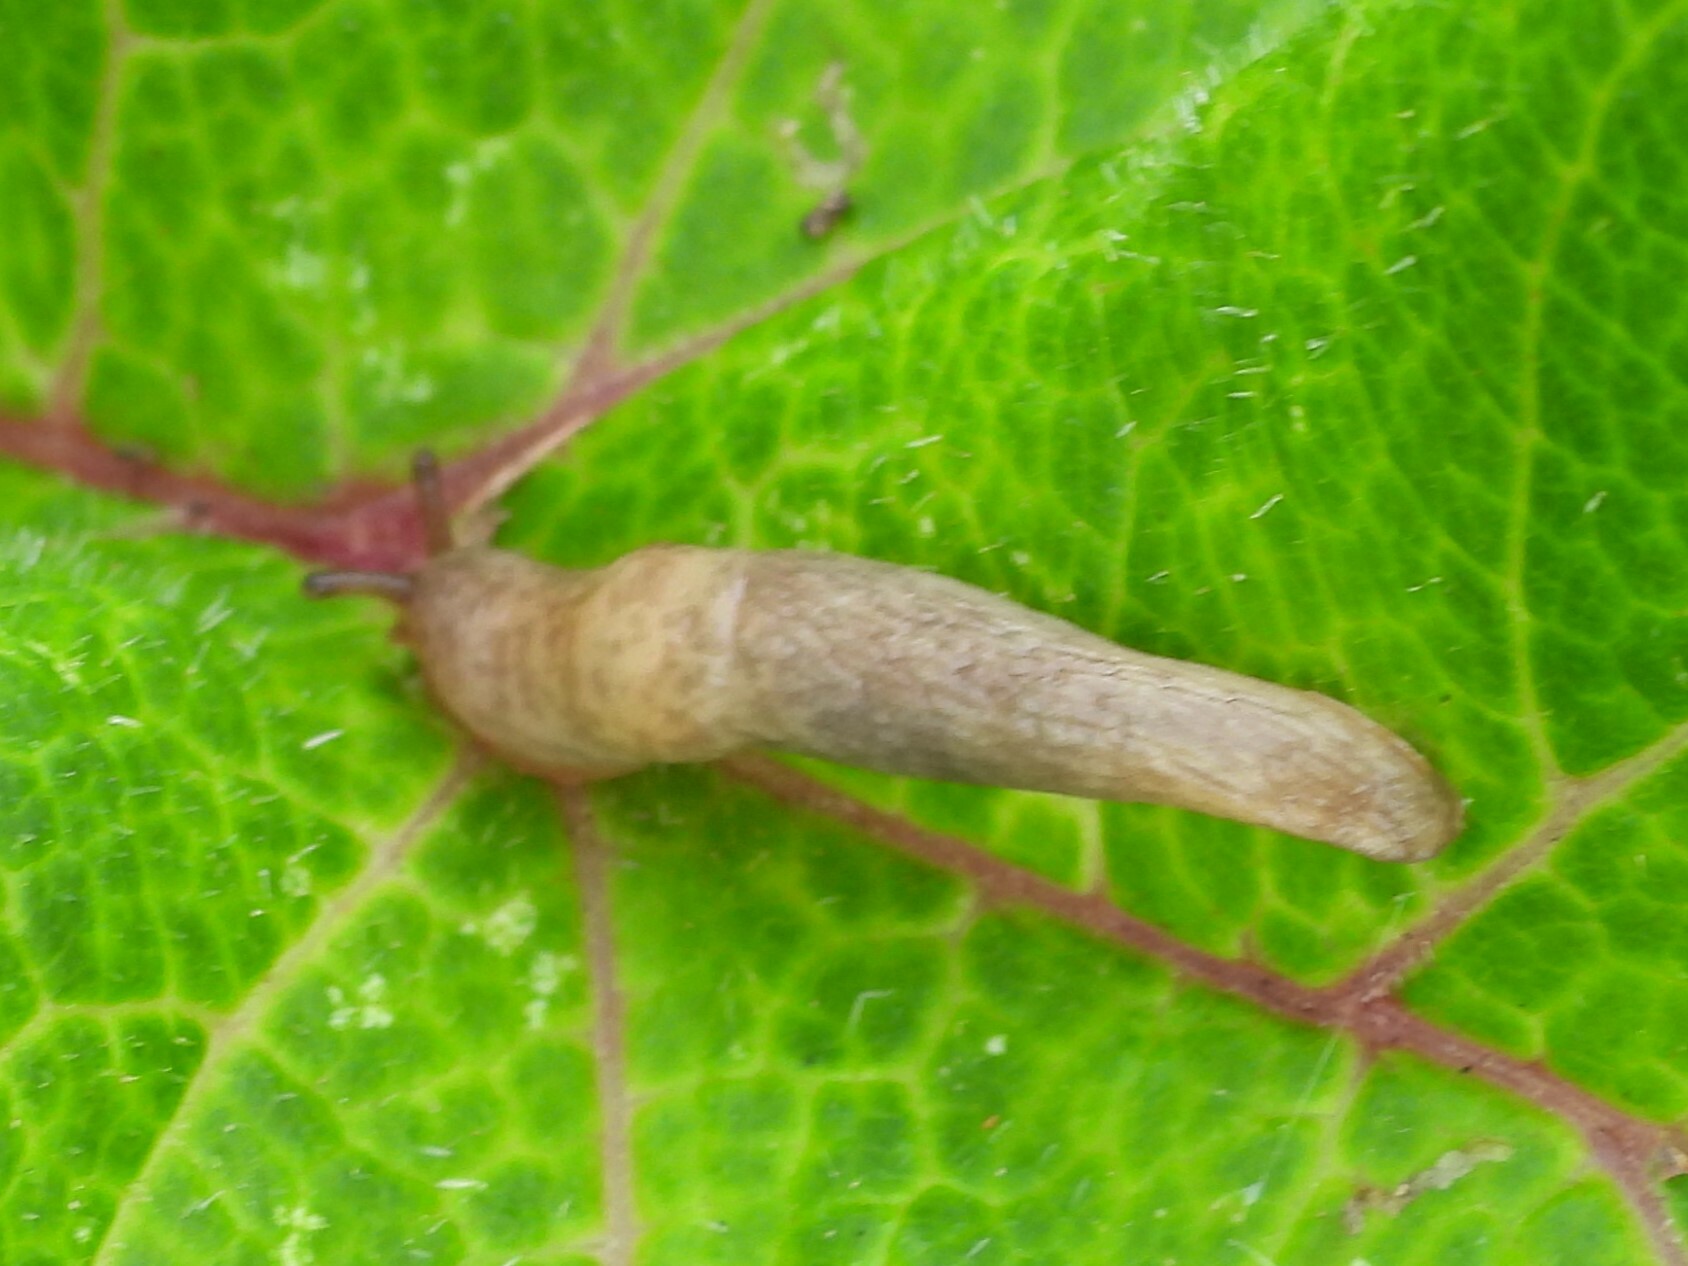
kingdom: Animalia
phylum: Mollusca
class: Gastropoda
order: Stylommatophora
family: Agriolimacidae
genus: Deroceras
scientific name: Deroceras reticulatum
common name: Gray field slug
